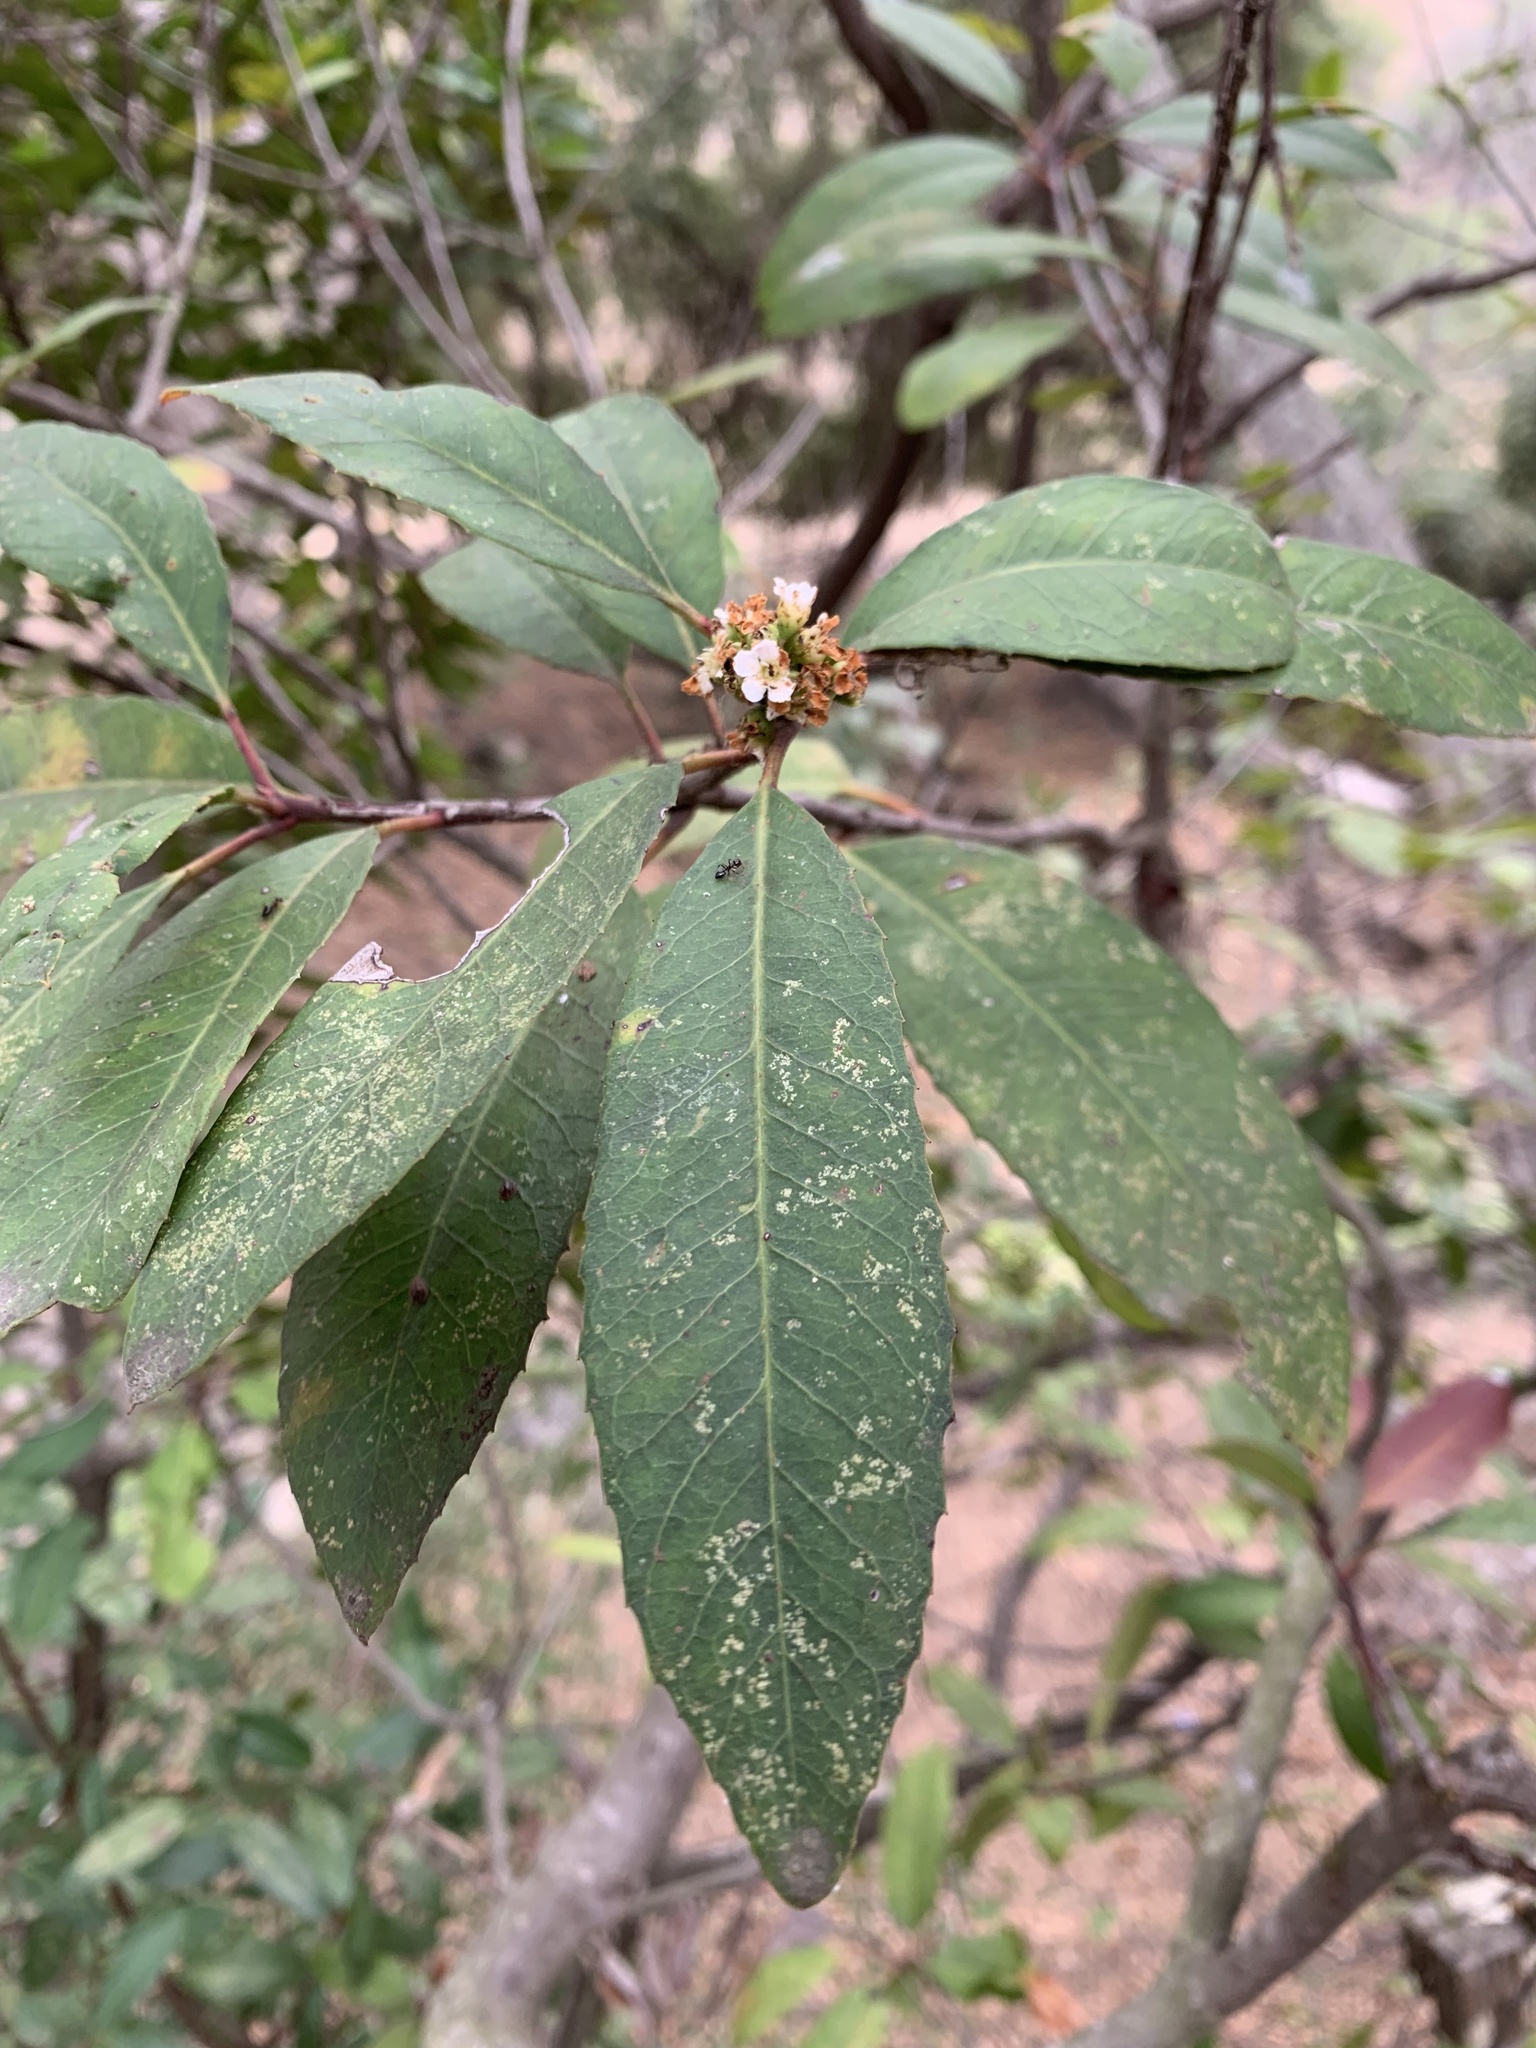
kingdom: Plantae
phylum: Tracheophyta
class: Magnoliopsida
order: Rosales
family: Rosaceae
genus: Heteromeles
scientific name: Heteromeles arbutifolia
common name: California-holly
